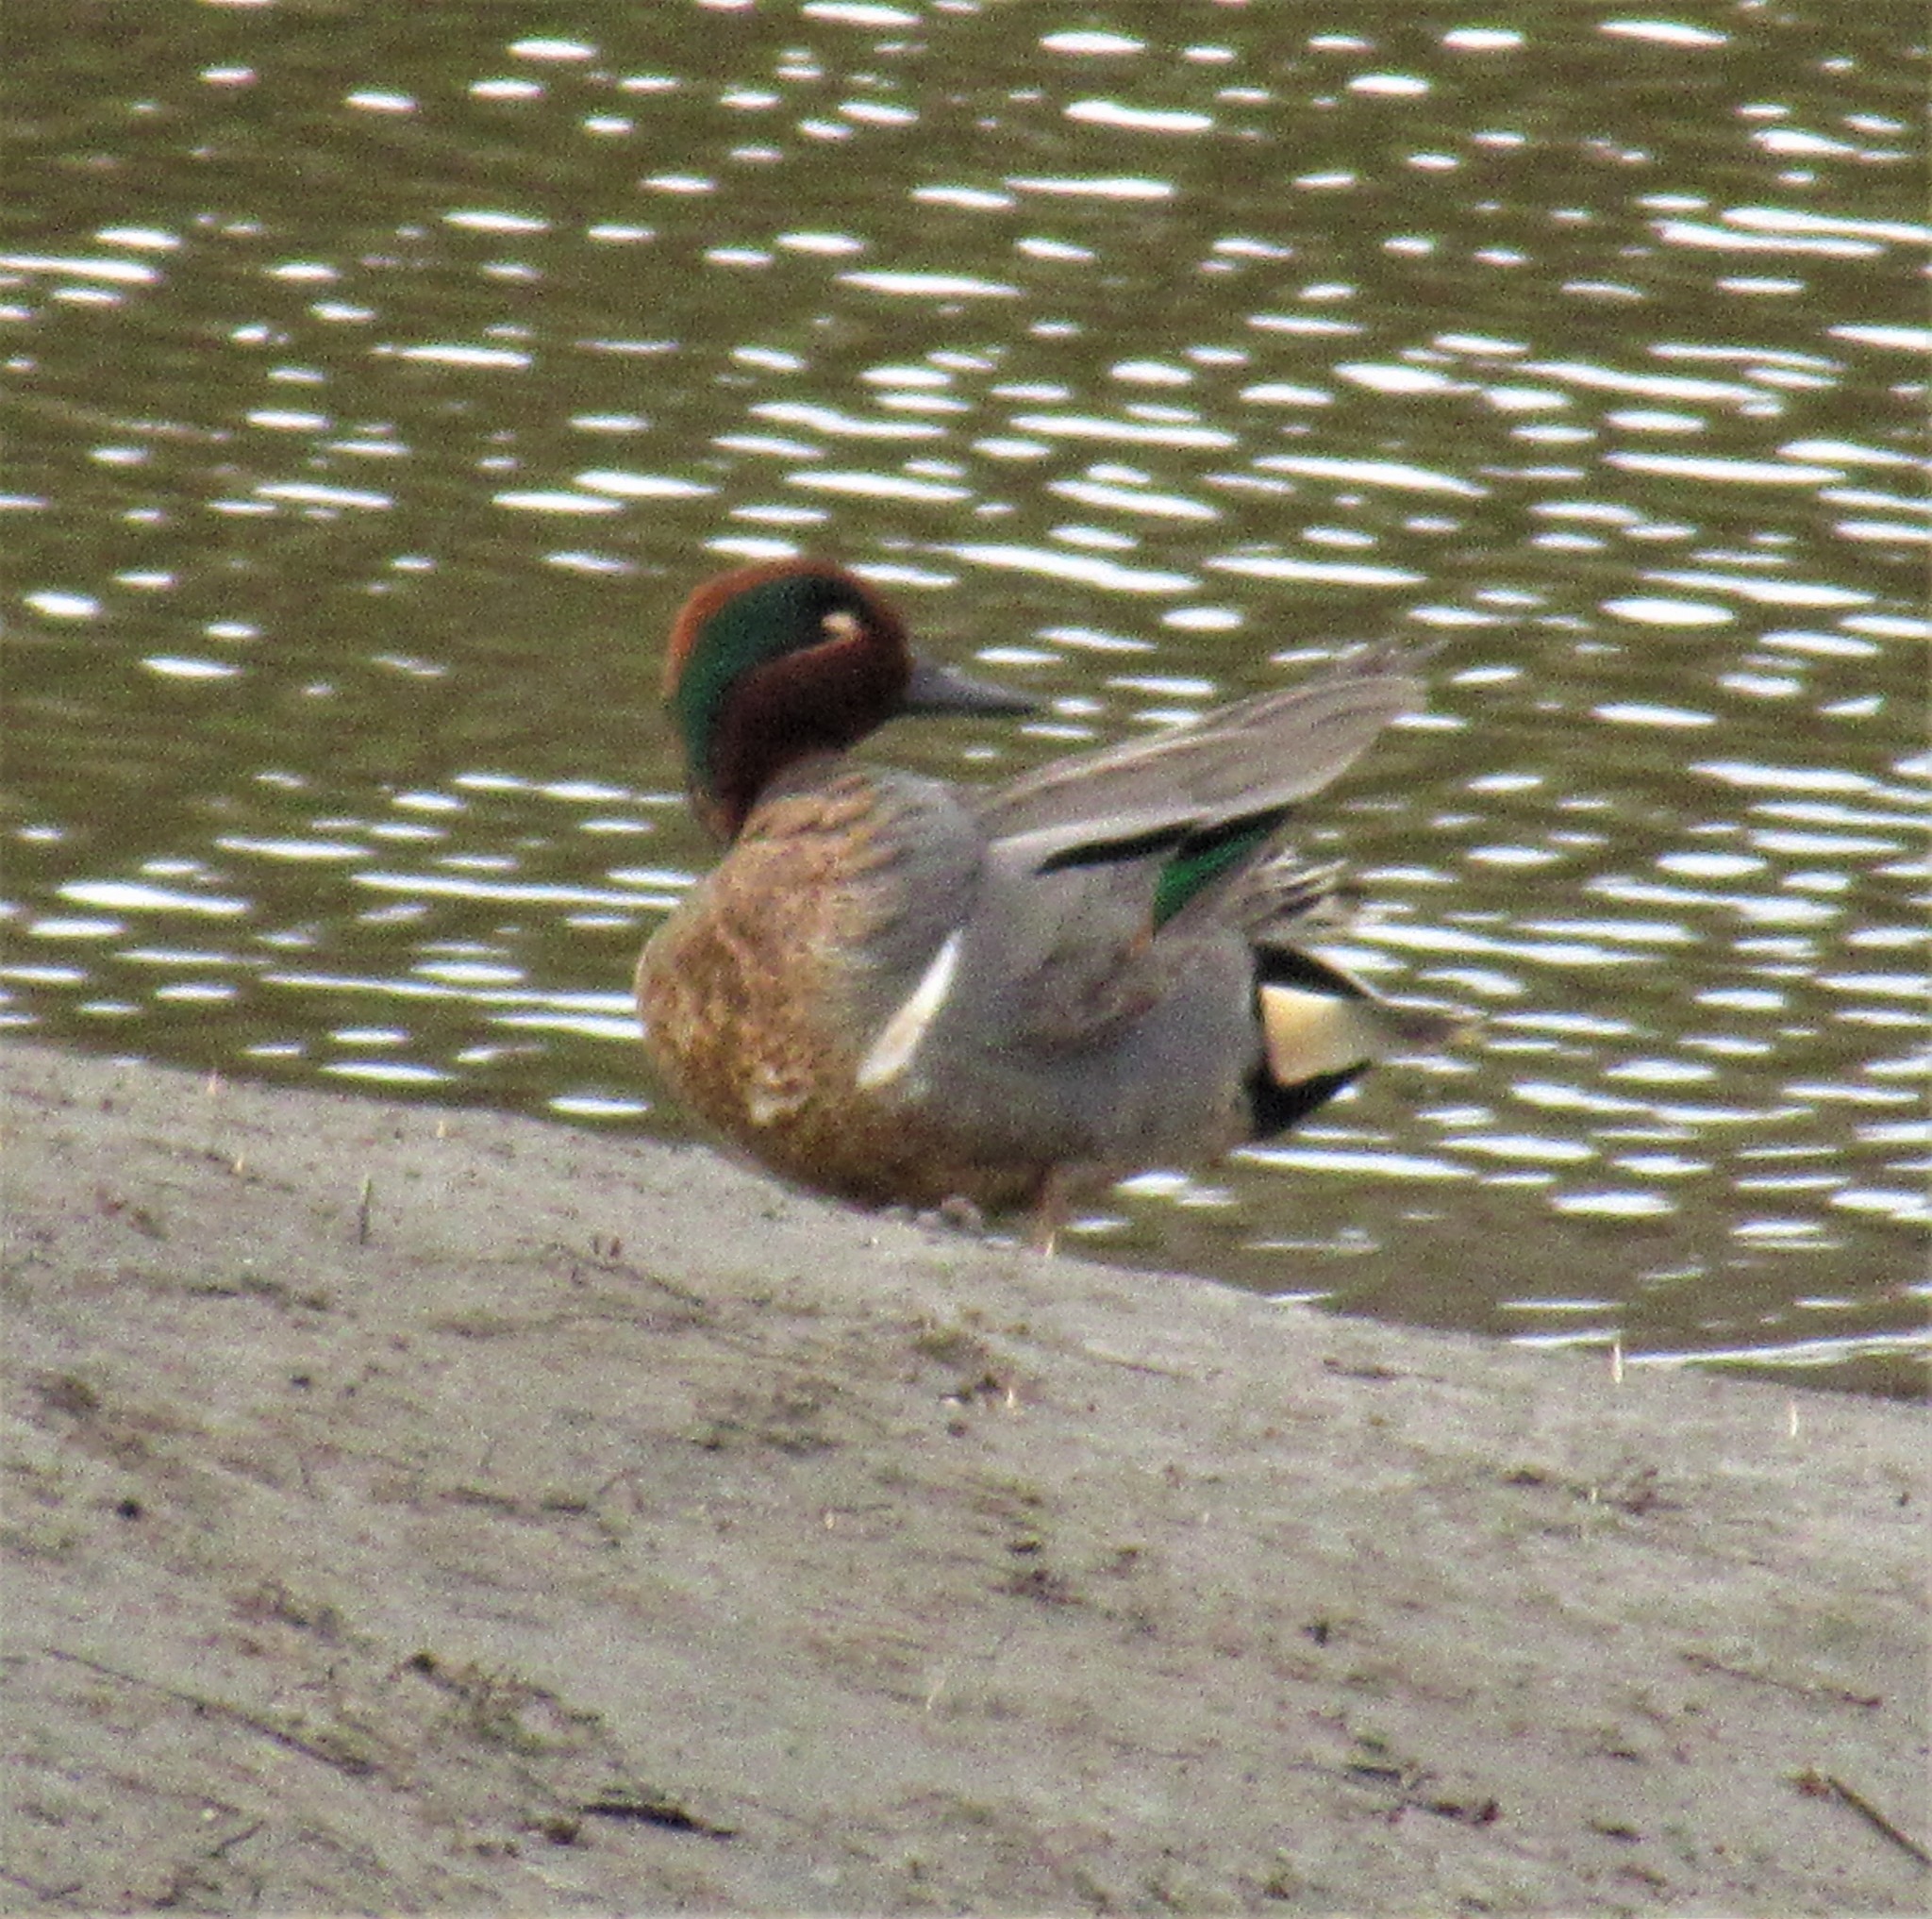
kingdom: Animalia
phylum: Chordata
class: Aves
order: Anseriformes
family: Anatidae
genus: Anas
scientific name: Anas crecca
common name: Eurasian teal
